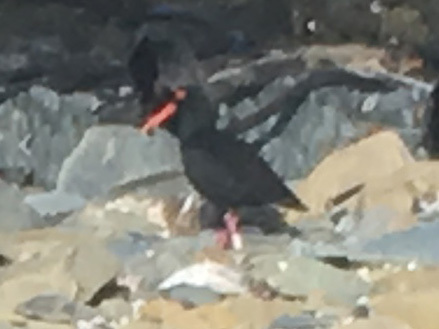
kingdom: Animalia
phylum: Chordata
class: Aves
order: Charadriiformes
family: Haematopodidae
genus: Haematopus
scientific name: Haematopus moquini
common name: African oystercatcher
